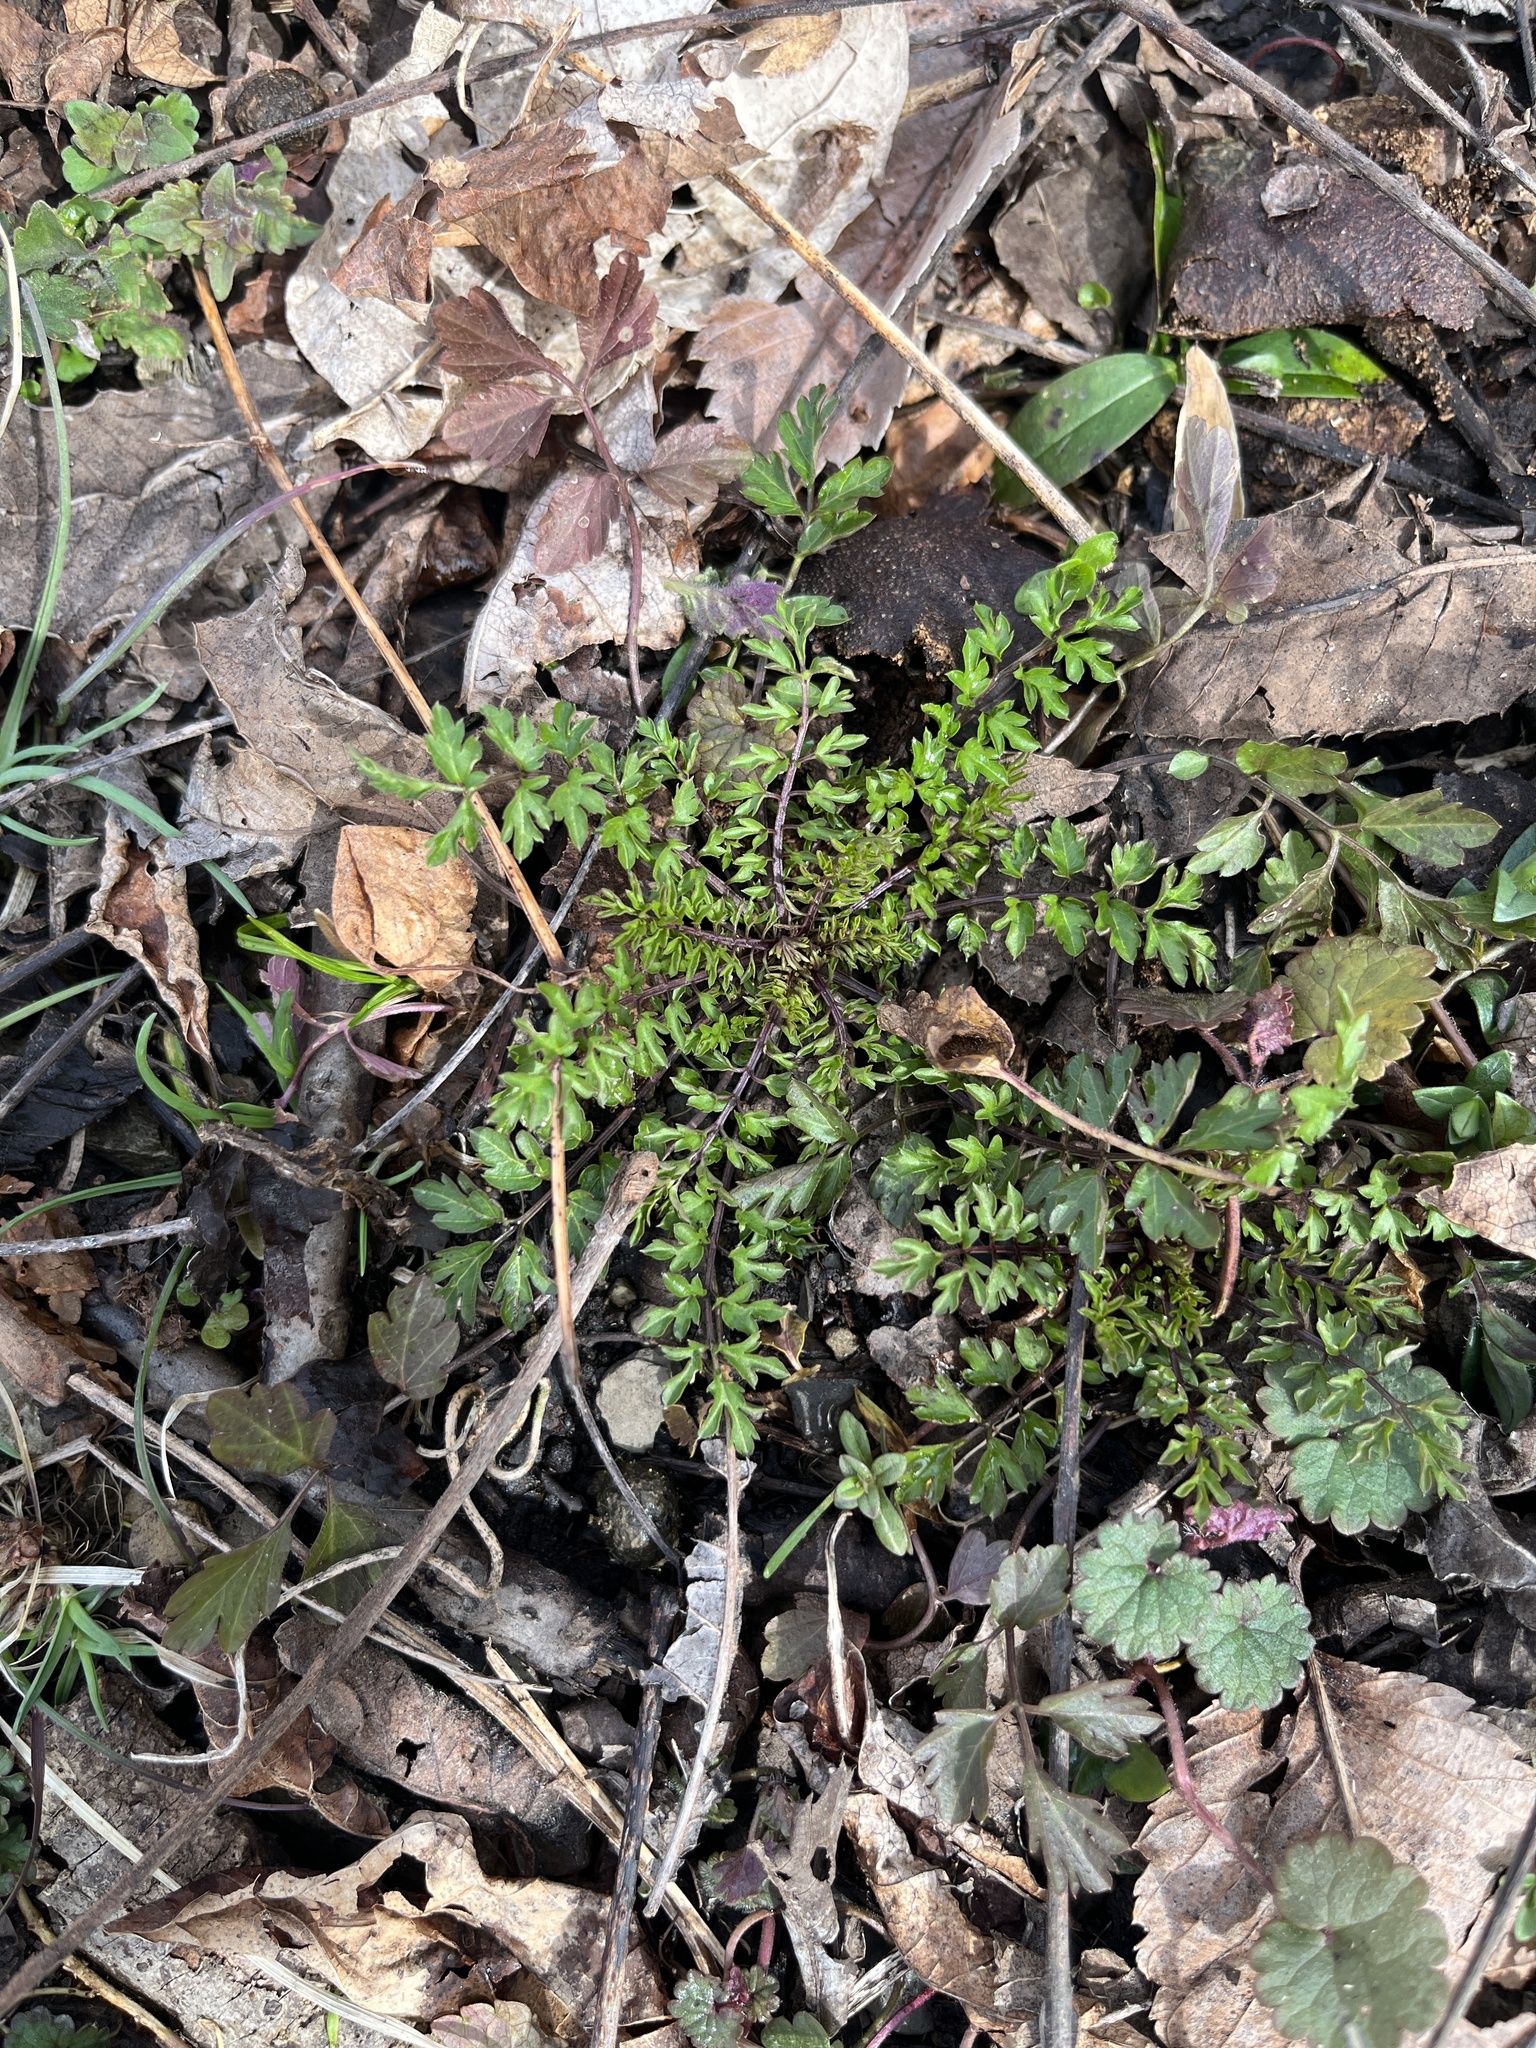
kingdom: Plantae
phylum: Tracheophyta
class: Magnoliopsida
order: Brassicales
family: Brassicaceae
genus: Cardamine
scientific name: Cardamine impatiens
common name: Narrow-leaved bitter-cress
